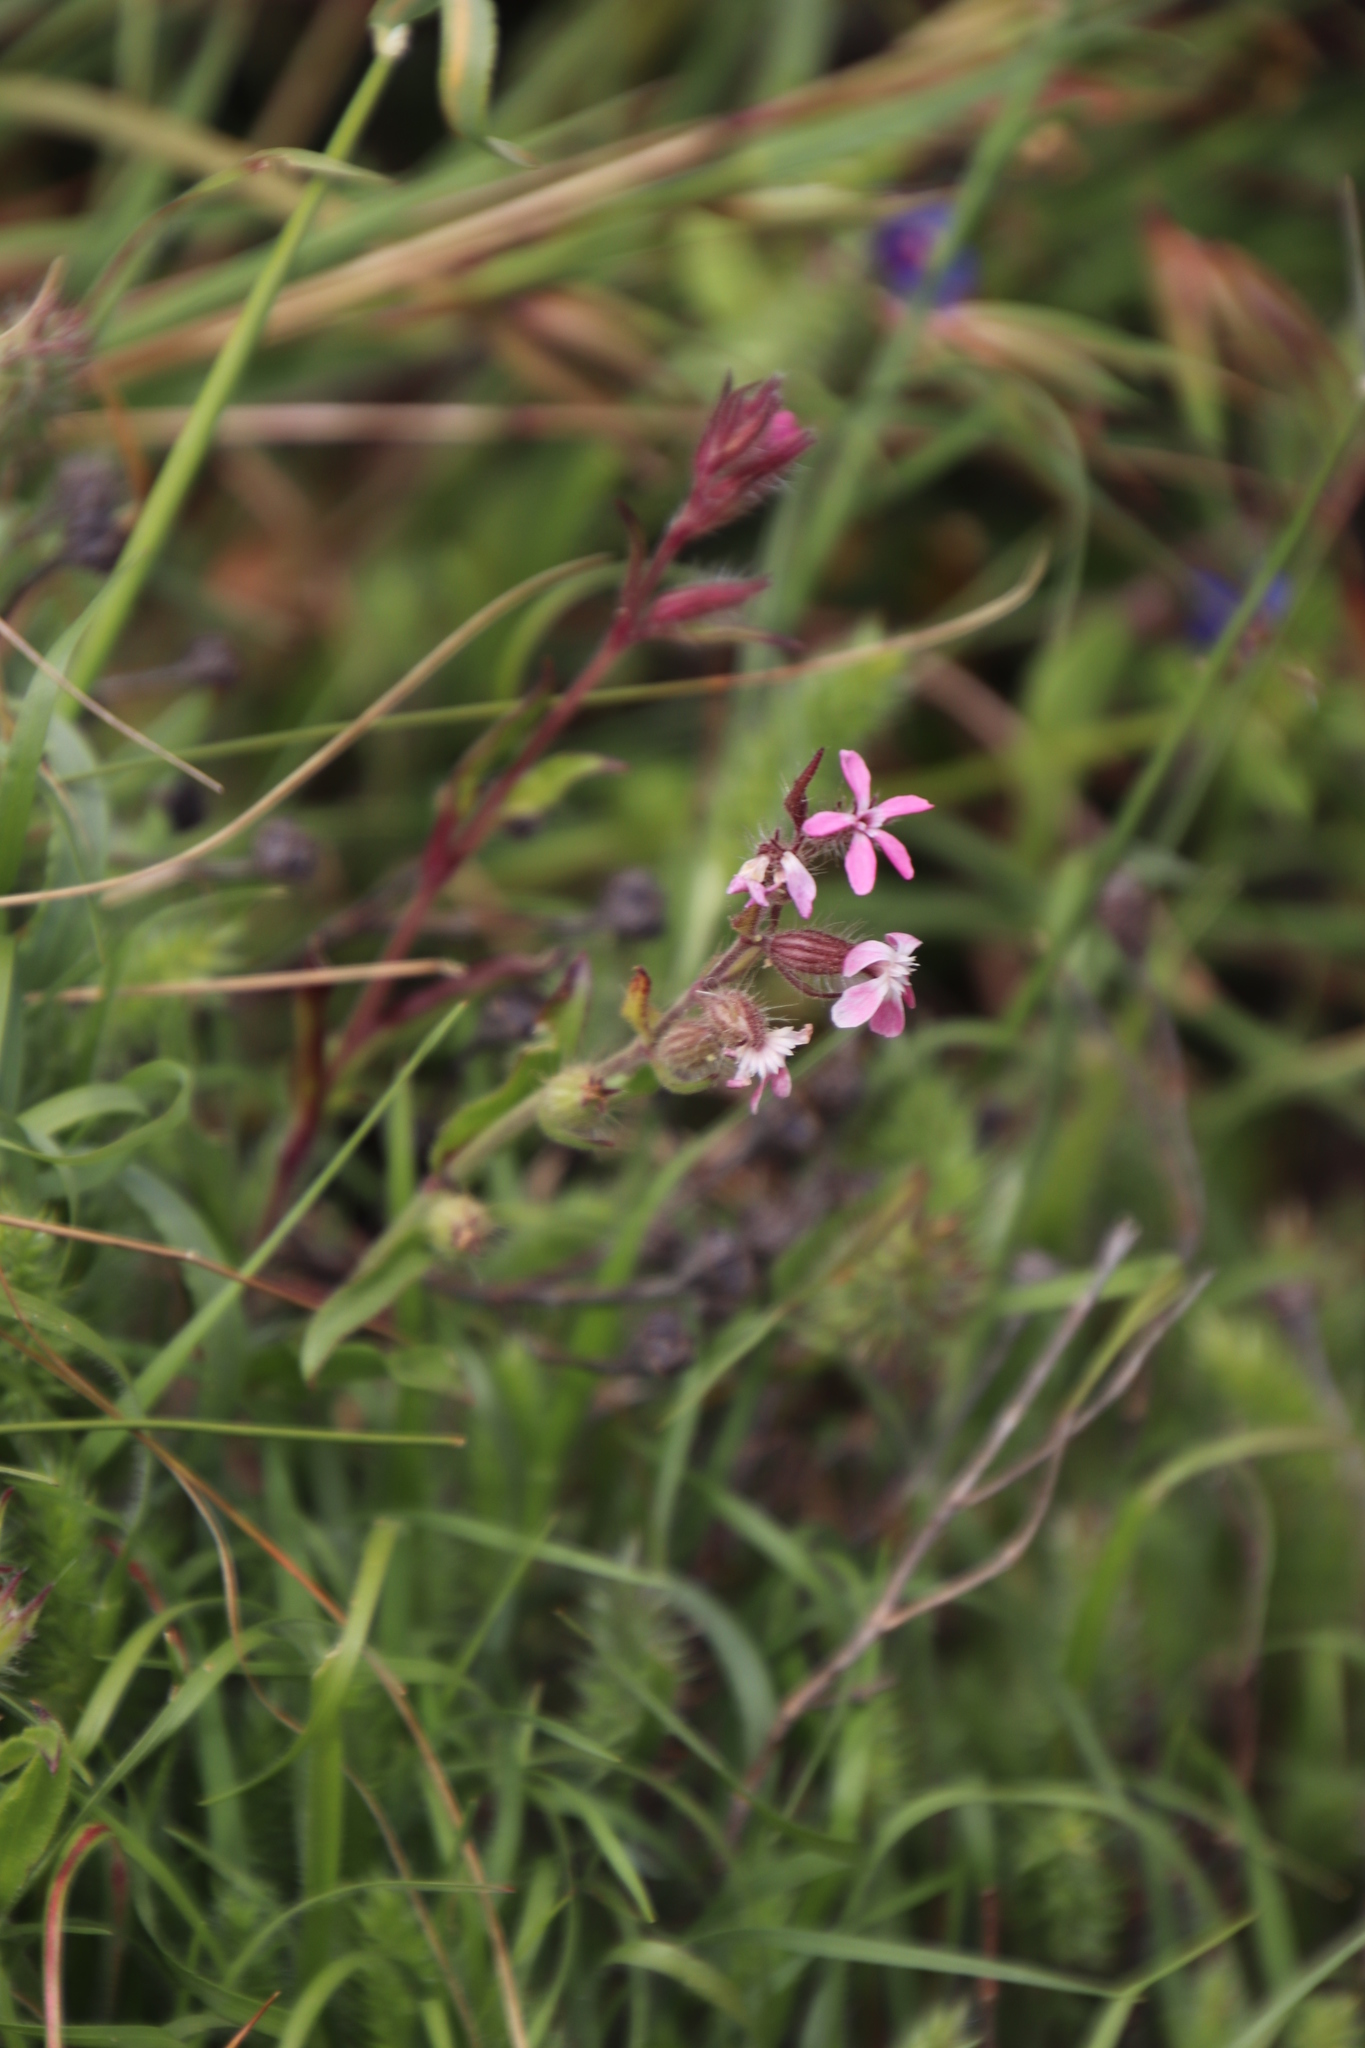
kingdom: Plantae
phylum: Tracheophyta
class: Magnoliopsida
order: Caryophyllales
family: Caryophyllaceae
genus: Silene
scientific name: Silene gallica
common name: Small-flowered catchfly
